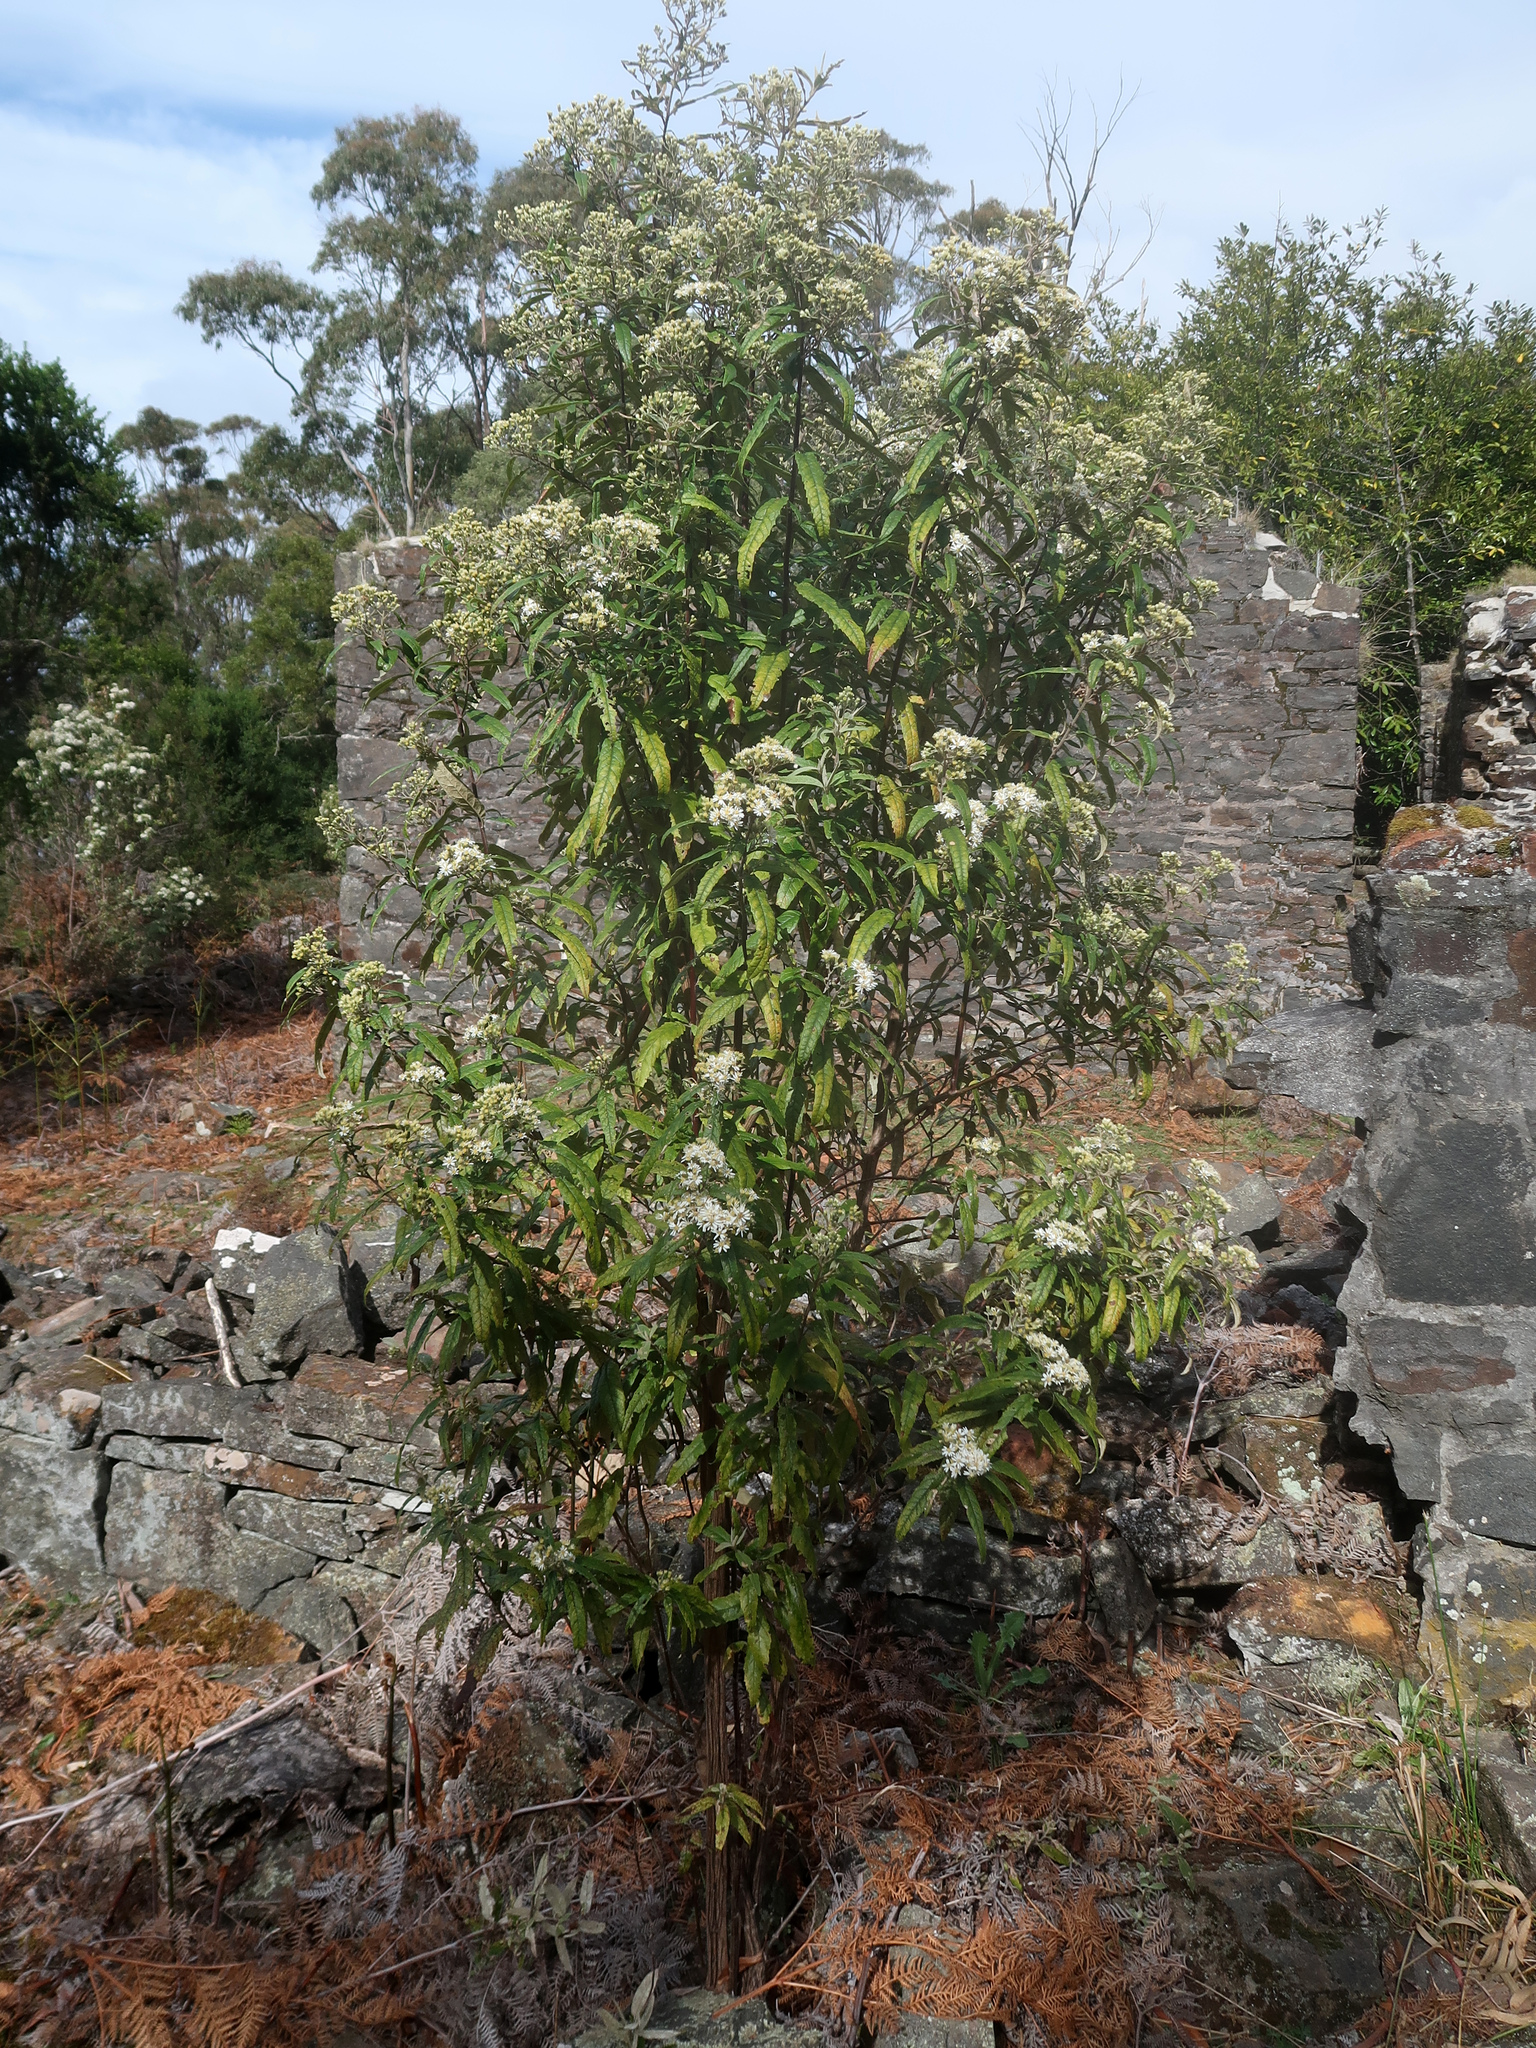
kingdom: Plantae
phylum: Tracheophyta
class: Magnoliopsida
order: Asterales
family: Asteraceae
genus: Olearia
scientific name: Olearia lirata
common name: Dusty daisybush
